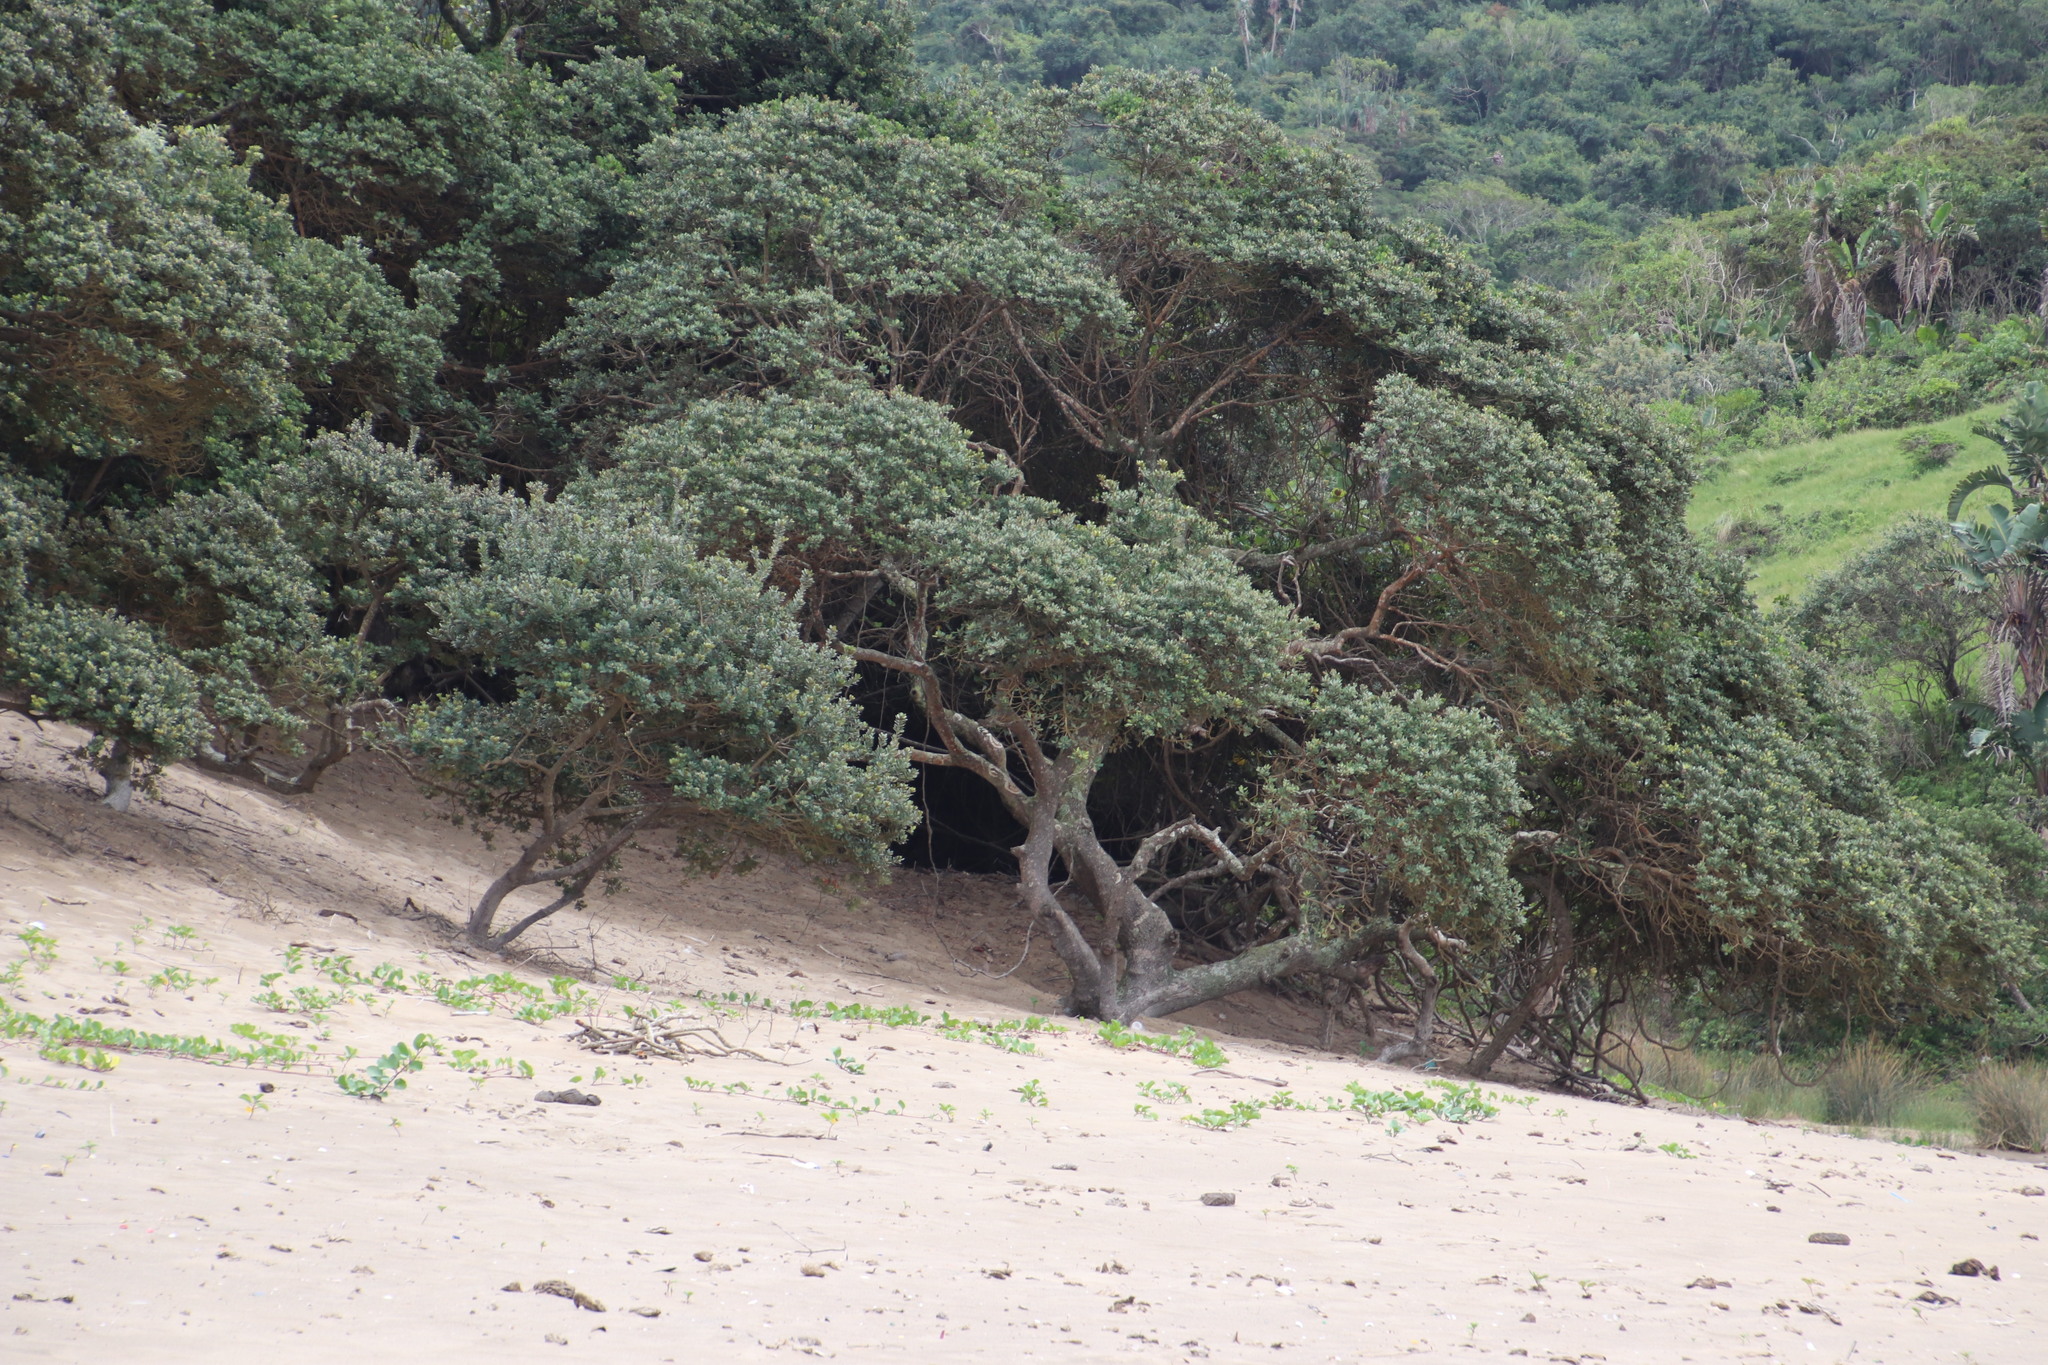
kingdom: Plantae
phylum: Tracheophyta
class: Magnoliopsida
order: Ericales
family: Sapotaceae
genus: Mimusops
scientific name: Mimusops caffra
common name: Coastal red milkwood
